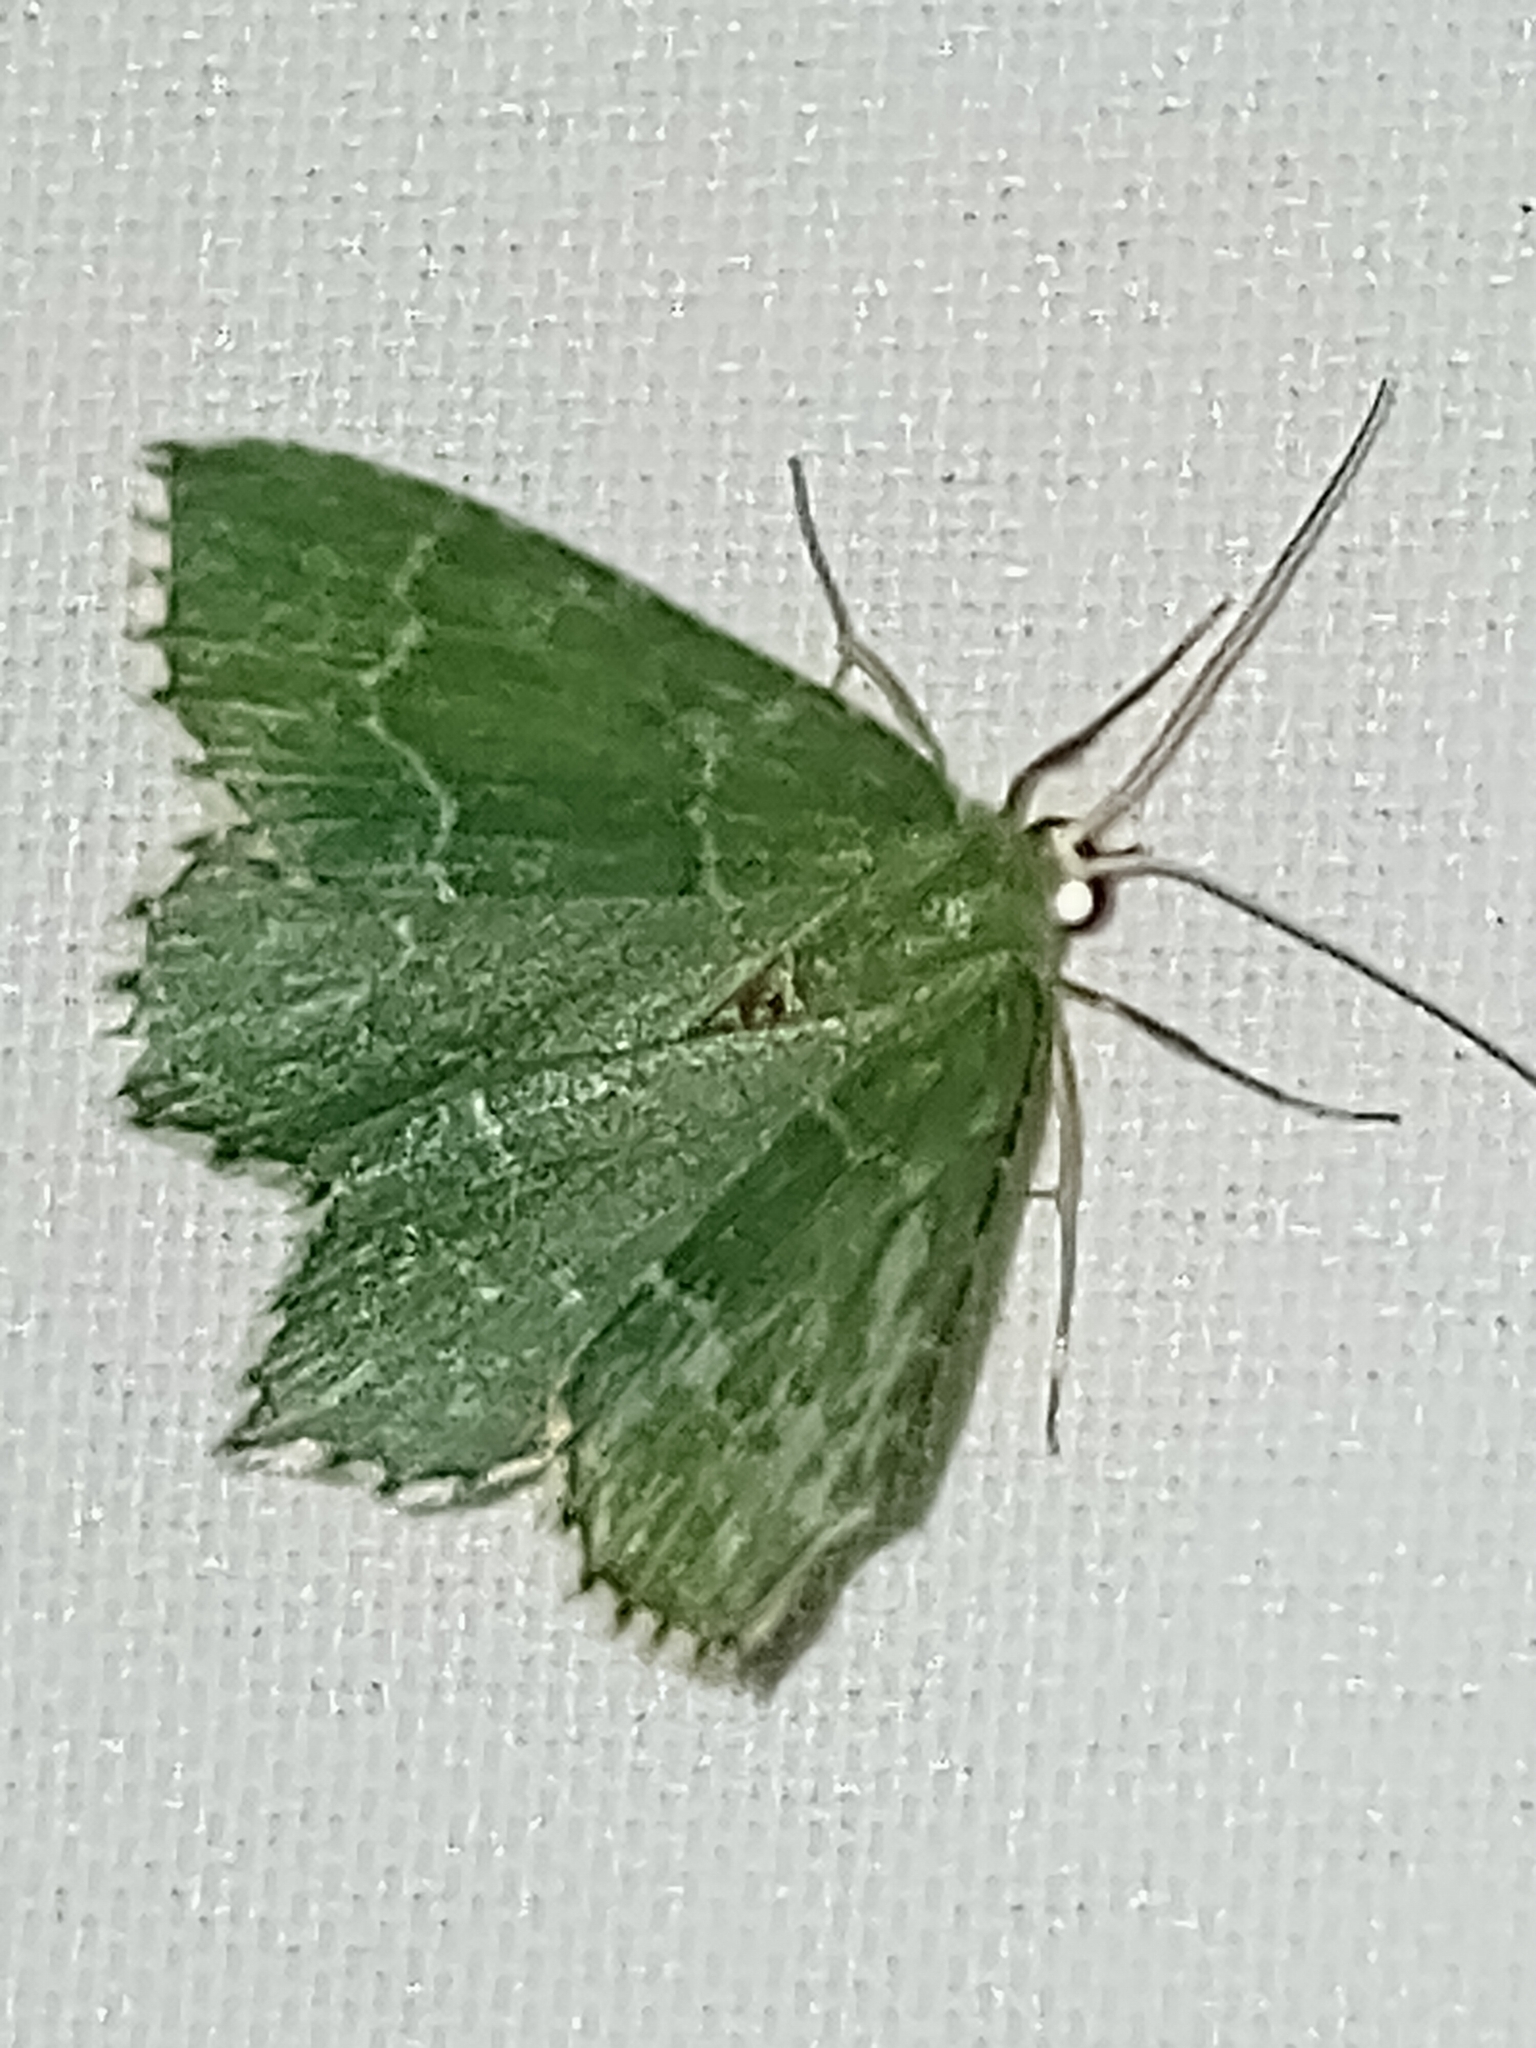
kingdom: Animalia
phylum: Arthropoda
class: Insecta
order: Lepidoptera
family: Geometridae
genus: Hemithea
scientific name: Hemithea aestivaria
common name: Common emerald
